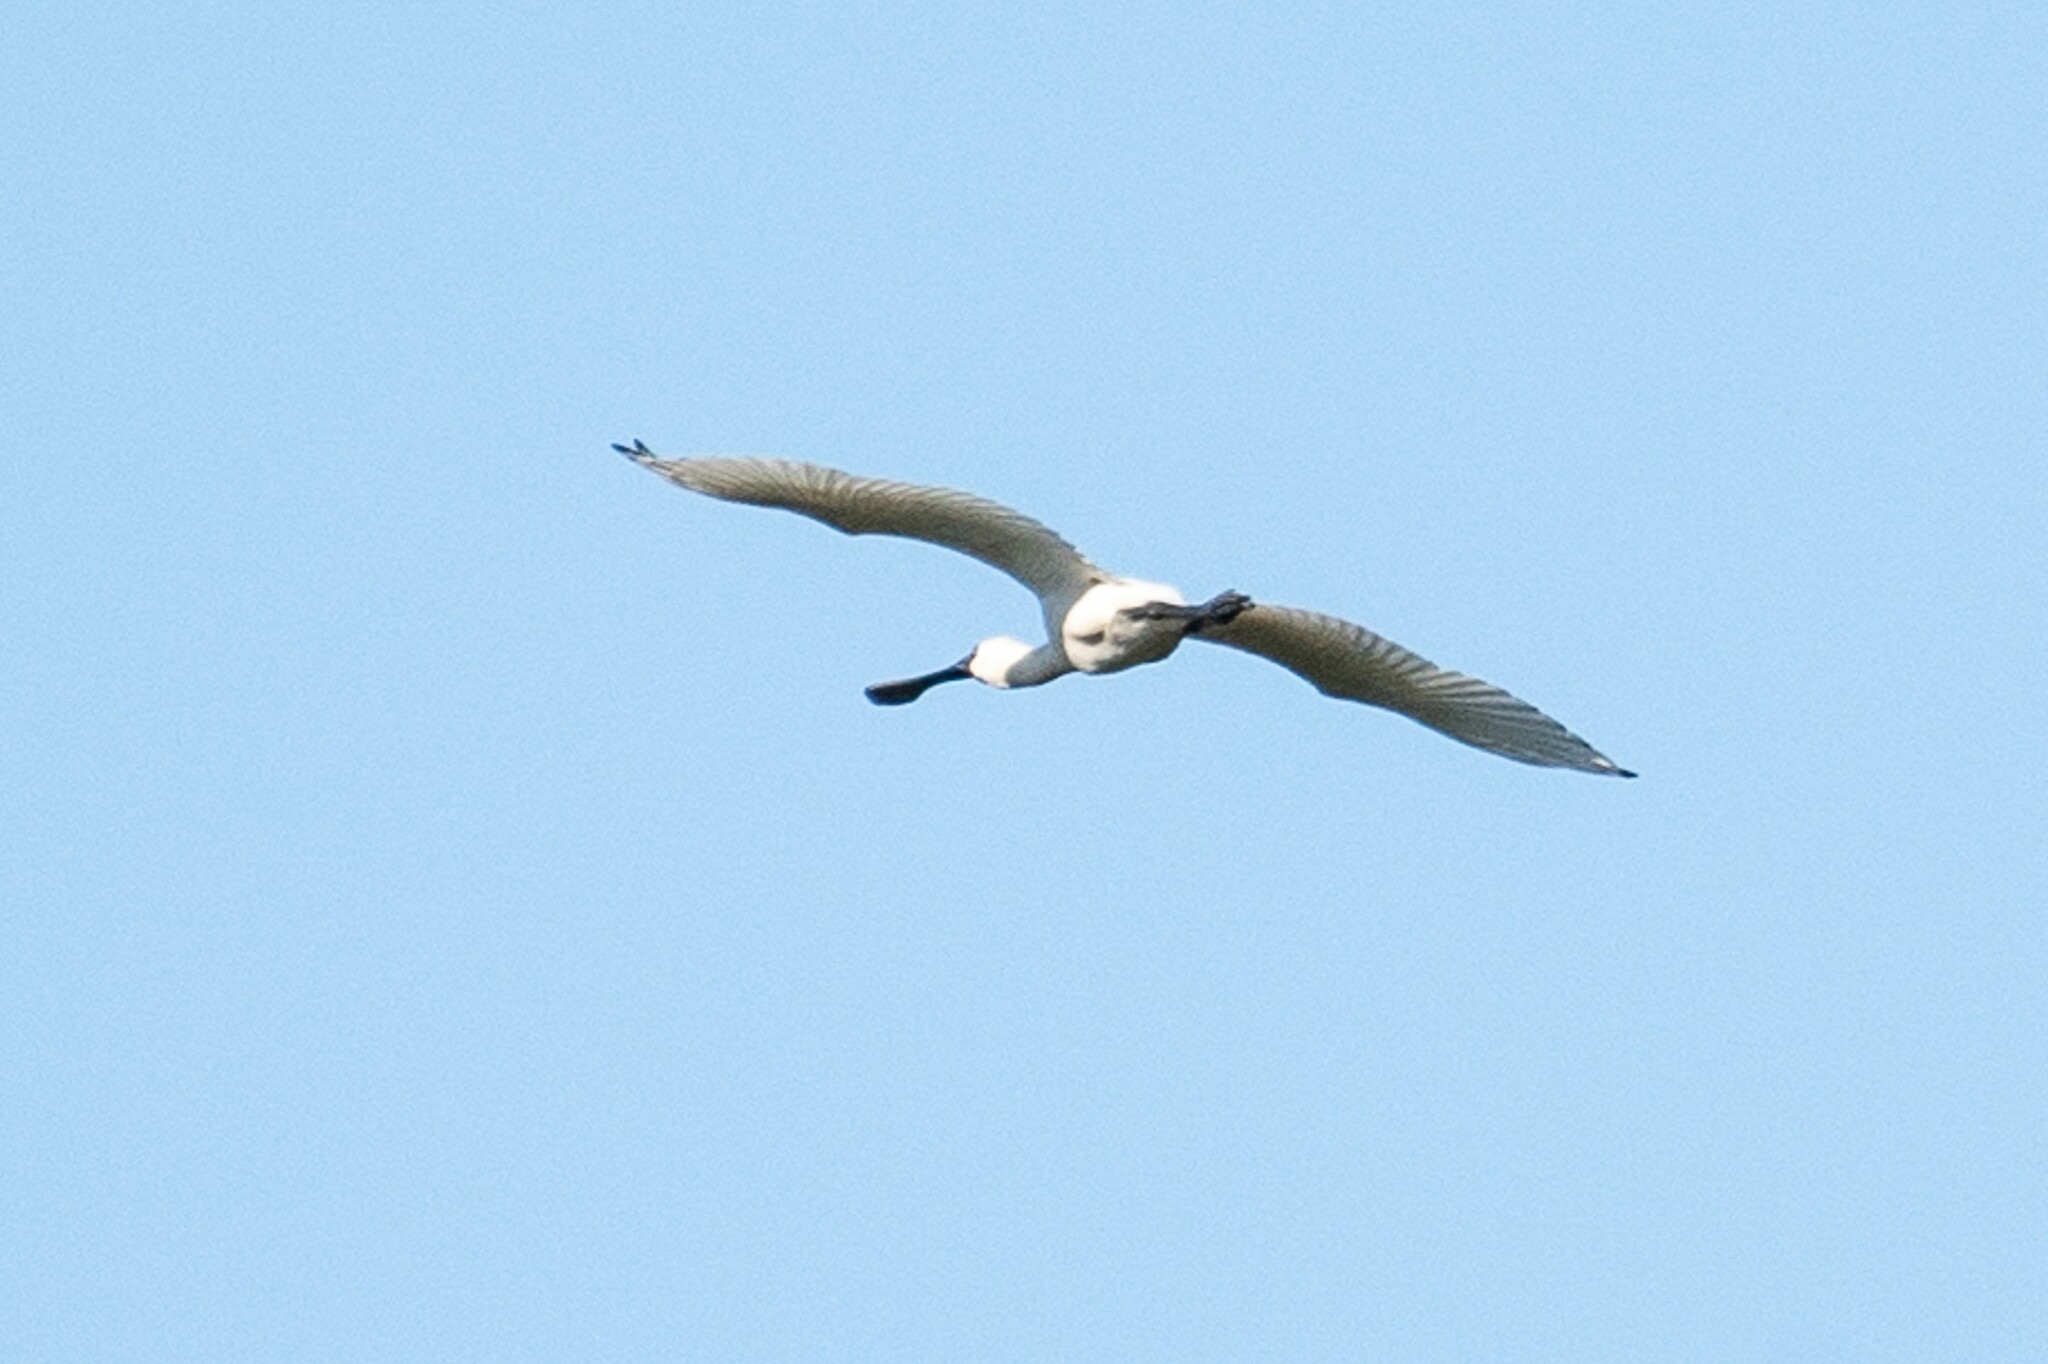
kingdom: Animalia
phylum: Chordata
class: Aves
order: Pelecaniformes
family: Threskiornithidae
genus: Platalea
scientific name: Platalea regia
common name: Royal spoonbill
